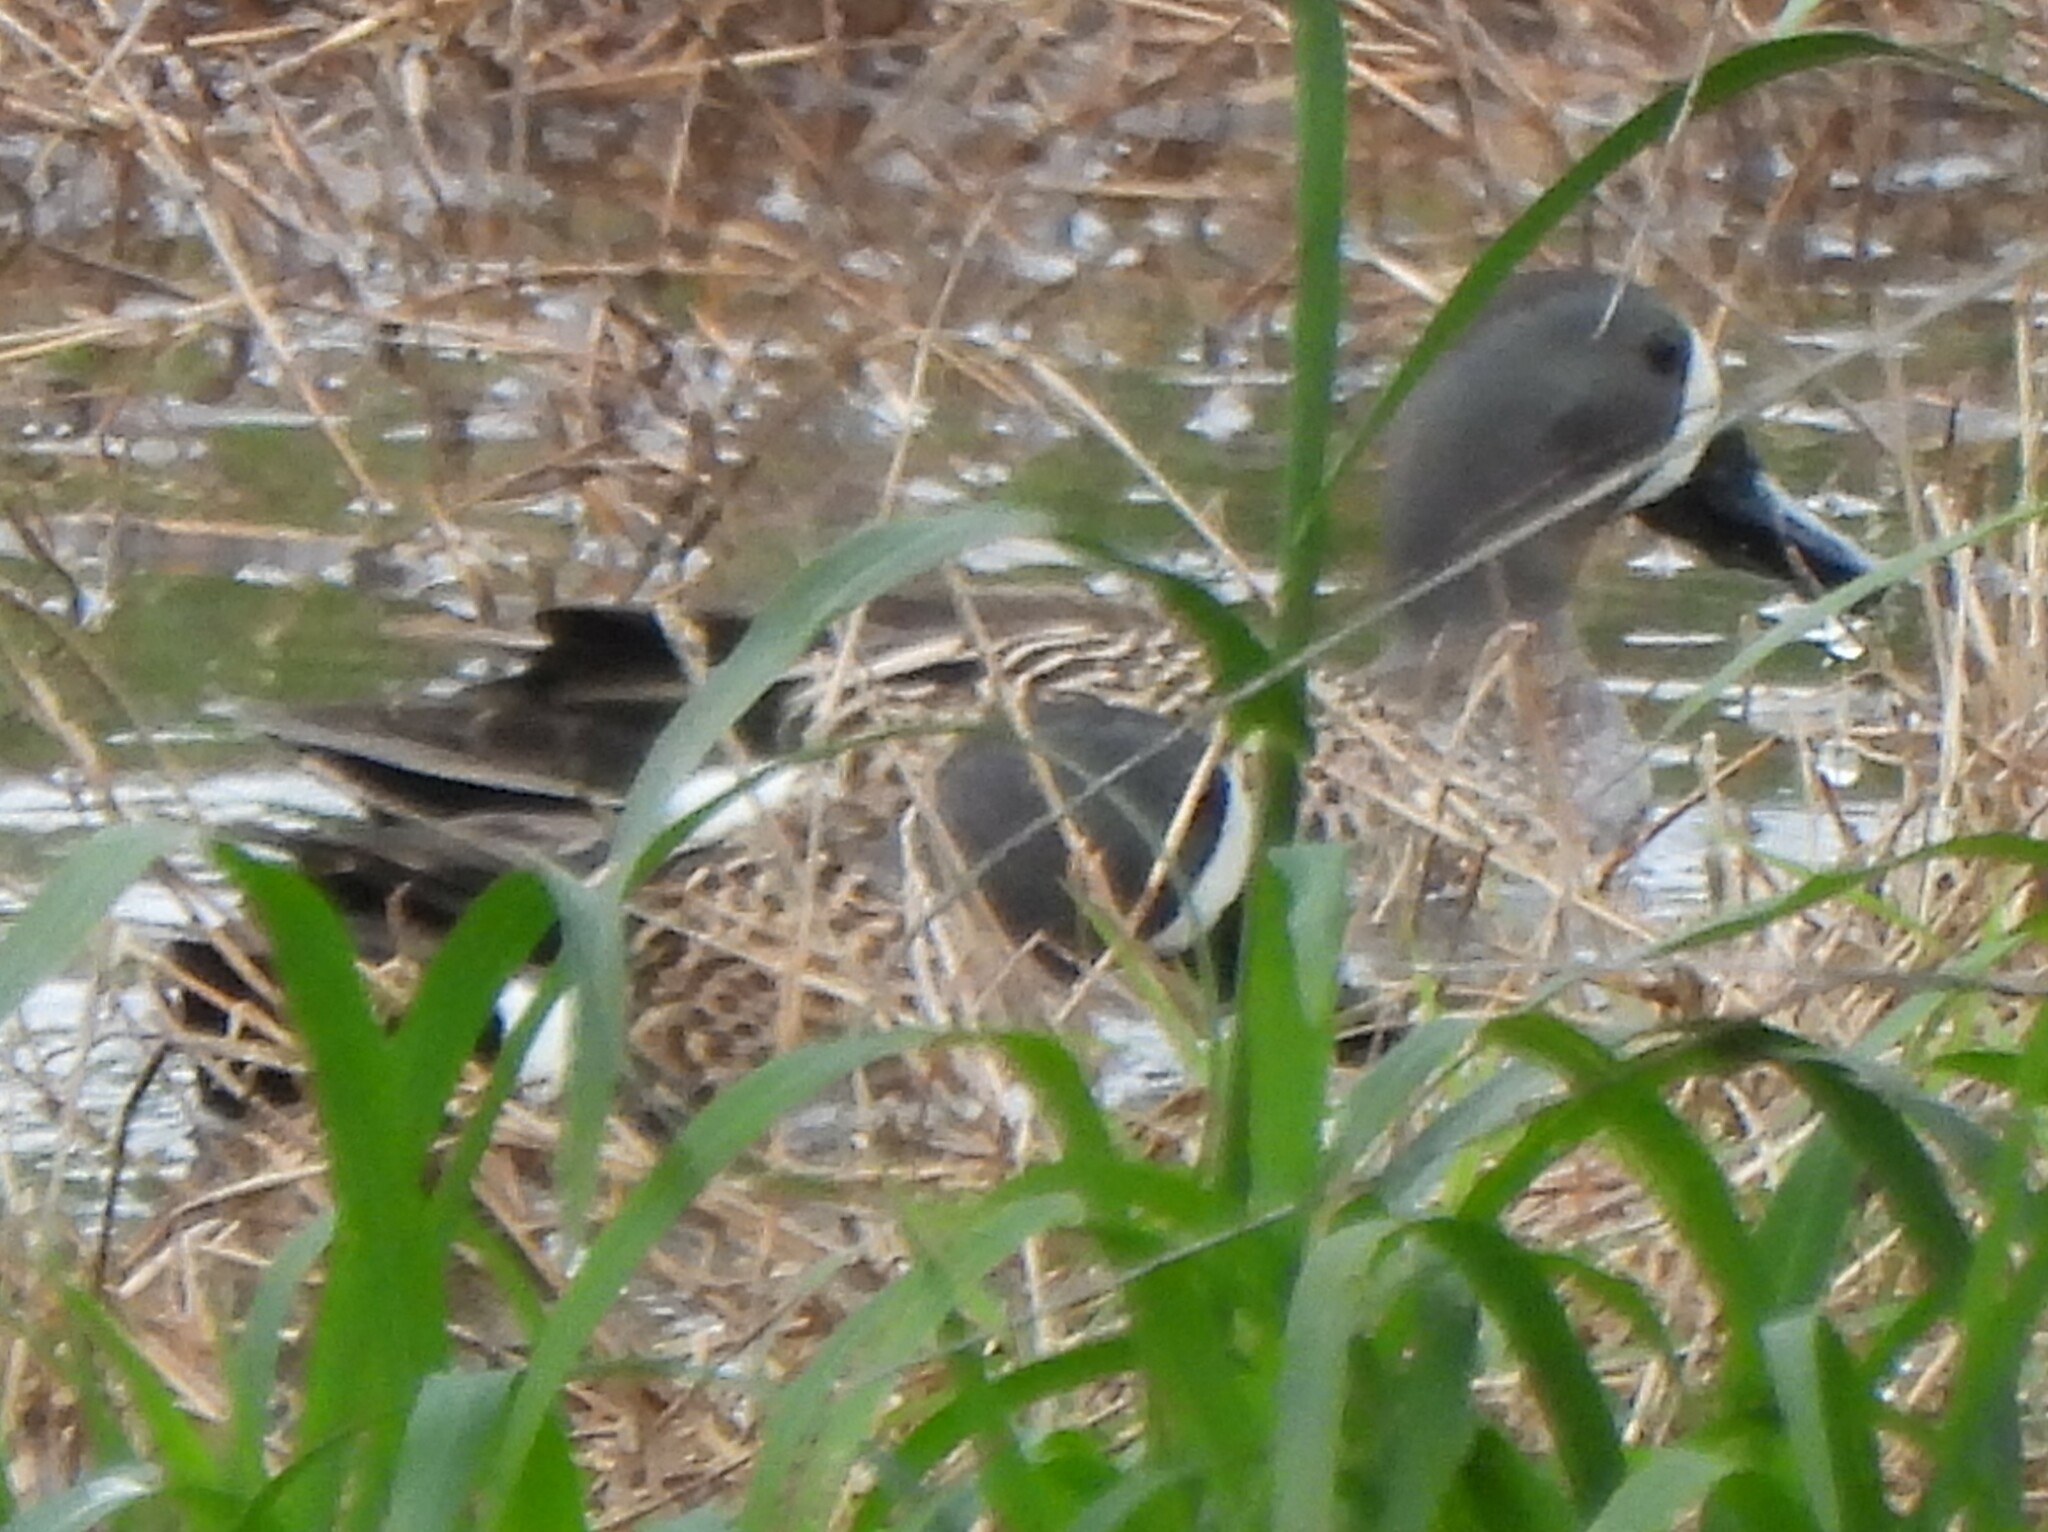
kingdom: Animalia
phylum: Chordata
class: Aves
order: Anseriformes
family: Anatidae
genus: Spatula
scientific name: Spatula discors
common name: Blue-winged teal
